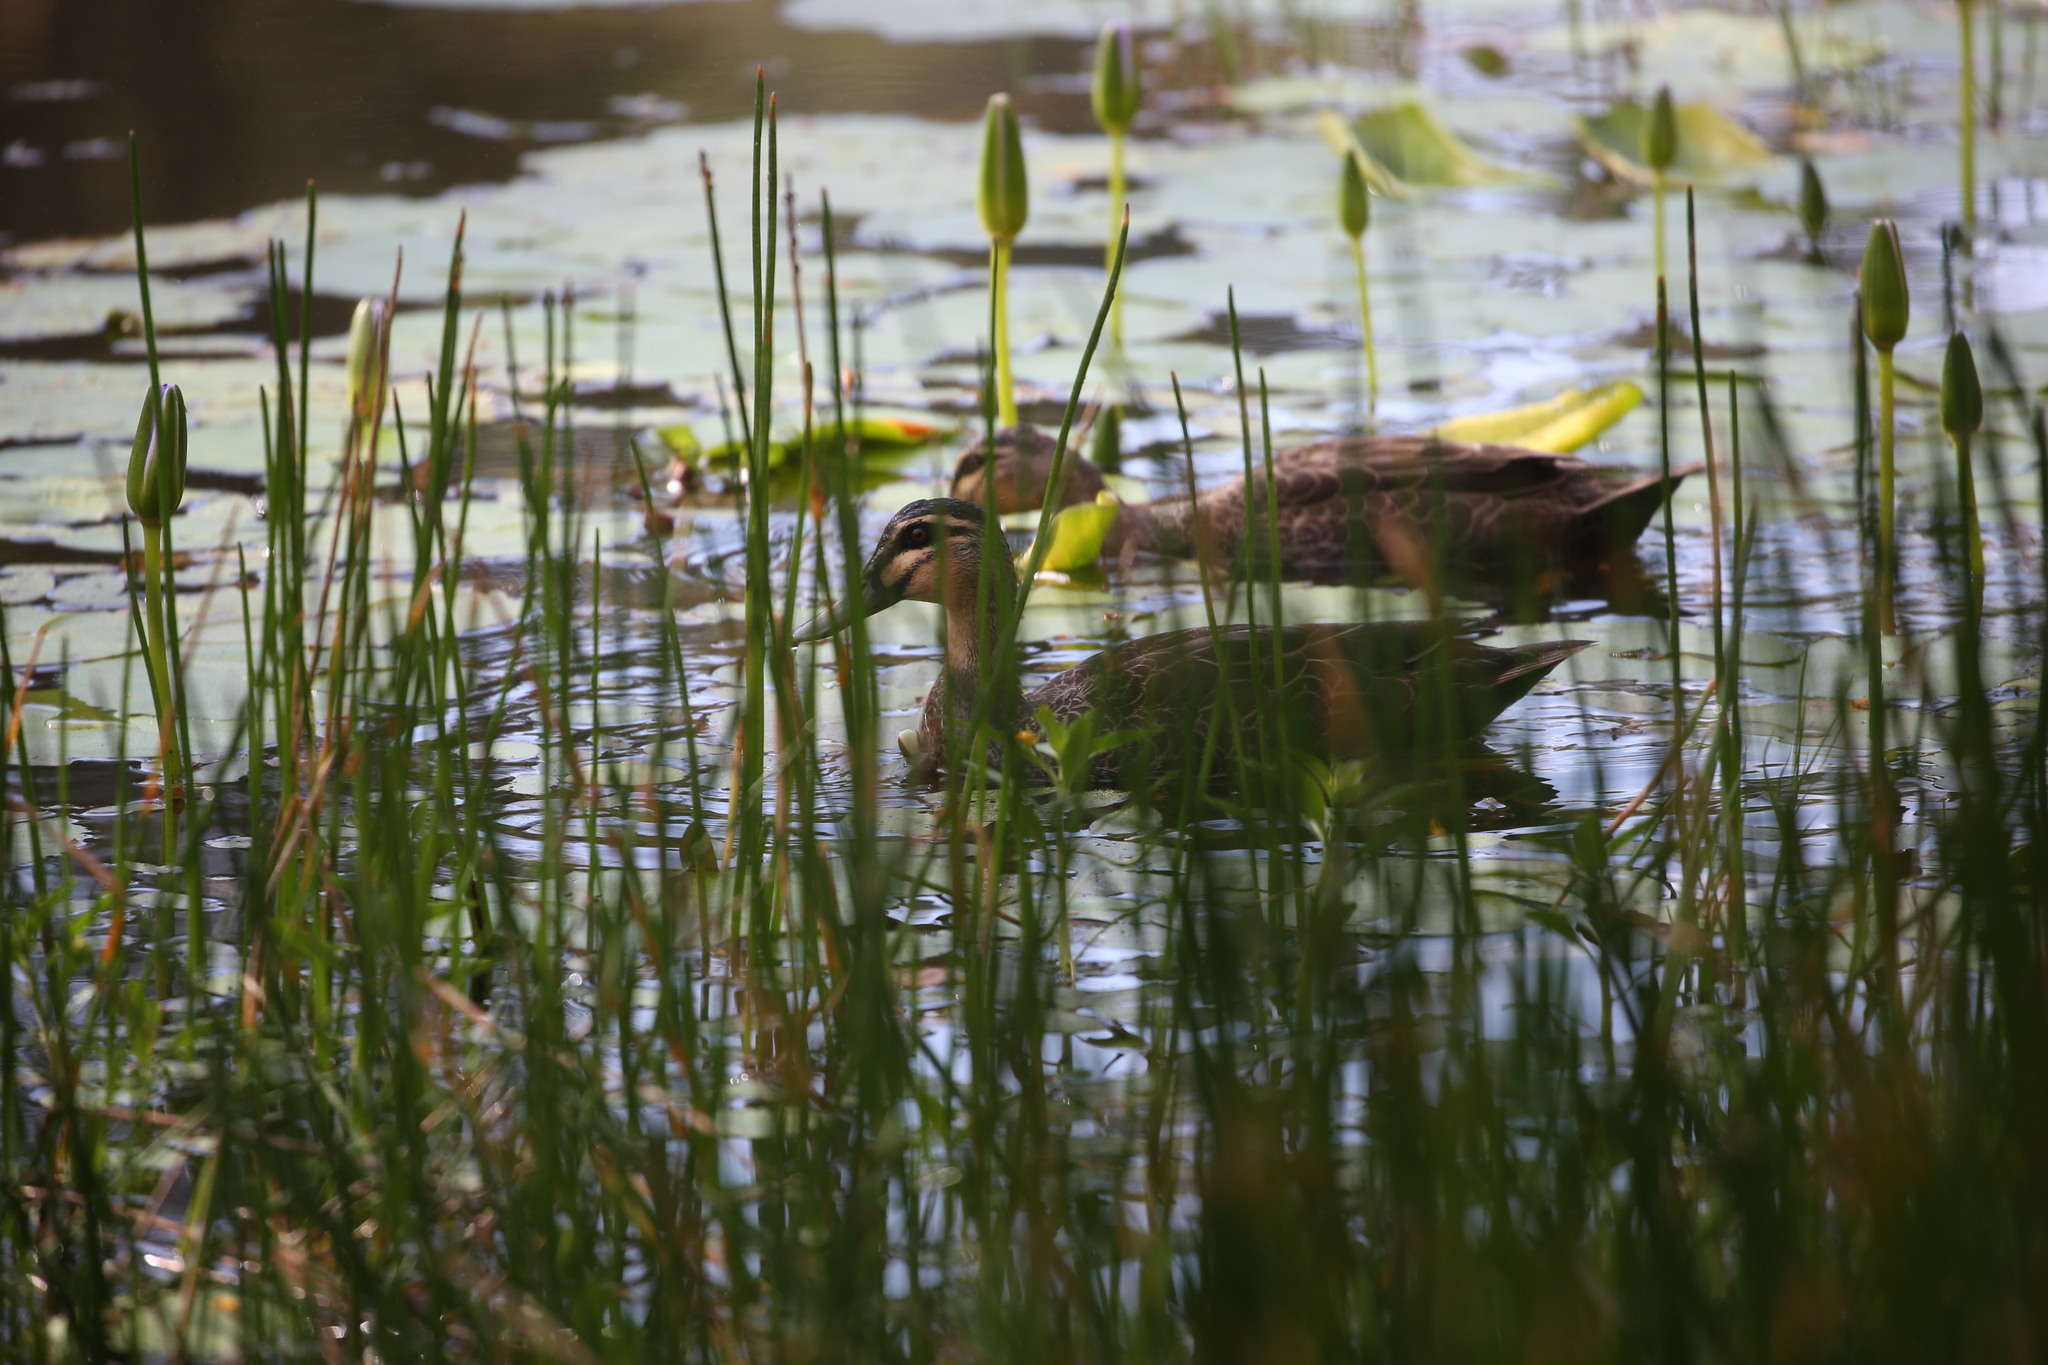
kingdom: Animalia
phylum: Chordata
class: Aves
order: Anseriformes
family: Anatidae
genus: Anas
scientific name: Anas superciliosa
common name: Pacific black duck
